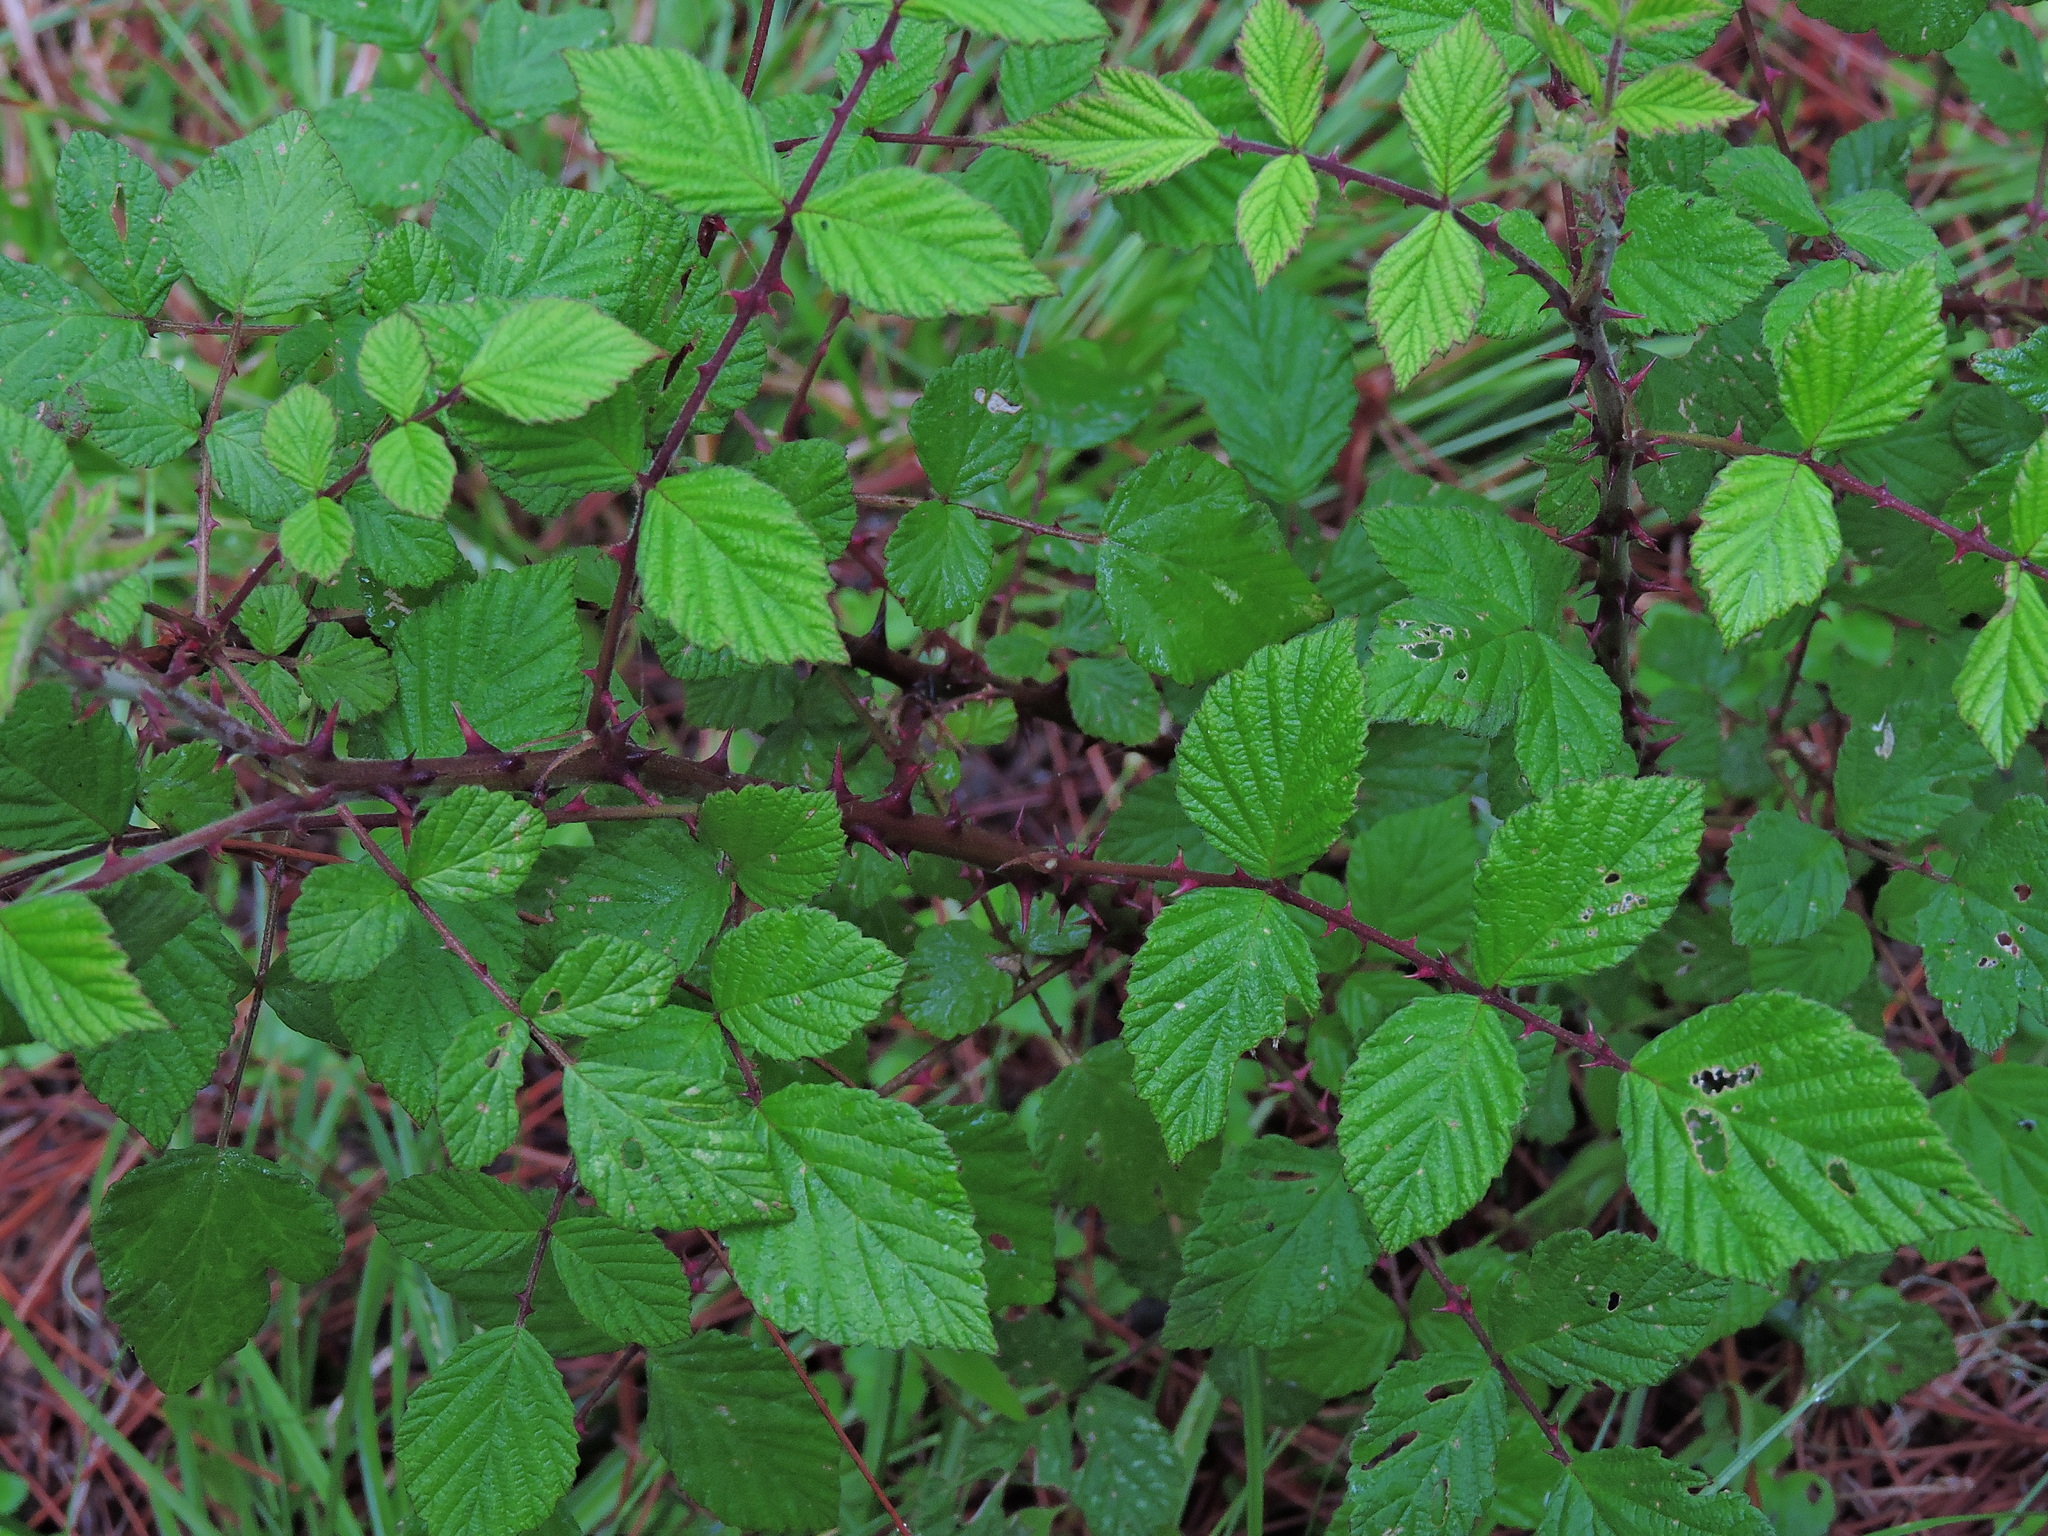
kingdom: Plantae
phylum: Tracheophyta
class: Magnoliopsida
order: Rosales
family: Rosaceae
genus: Rubus
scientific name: Rubus niveus
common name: Snowpeaks raspberry
